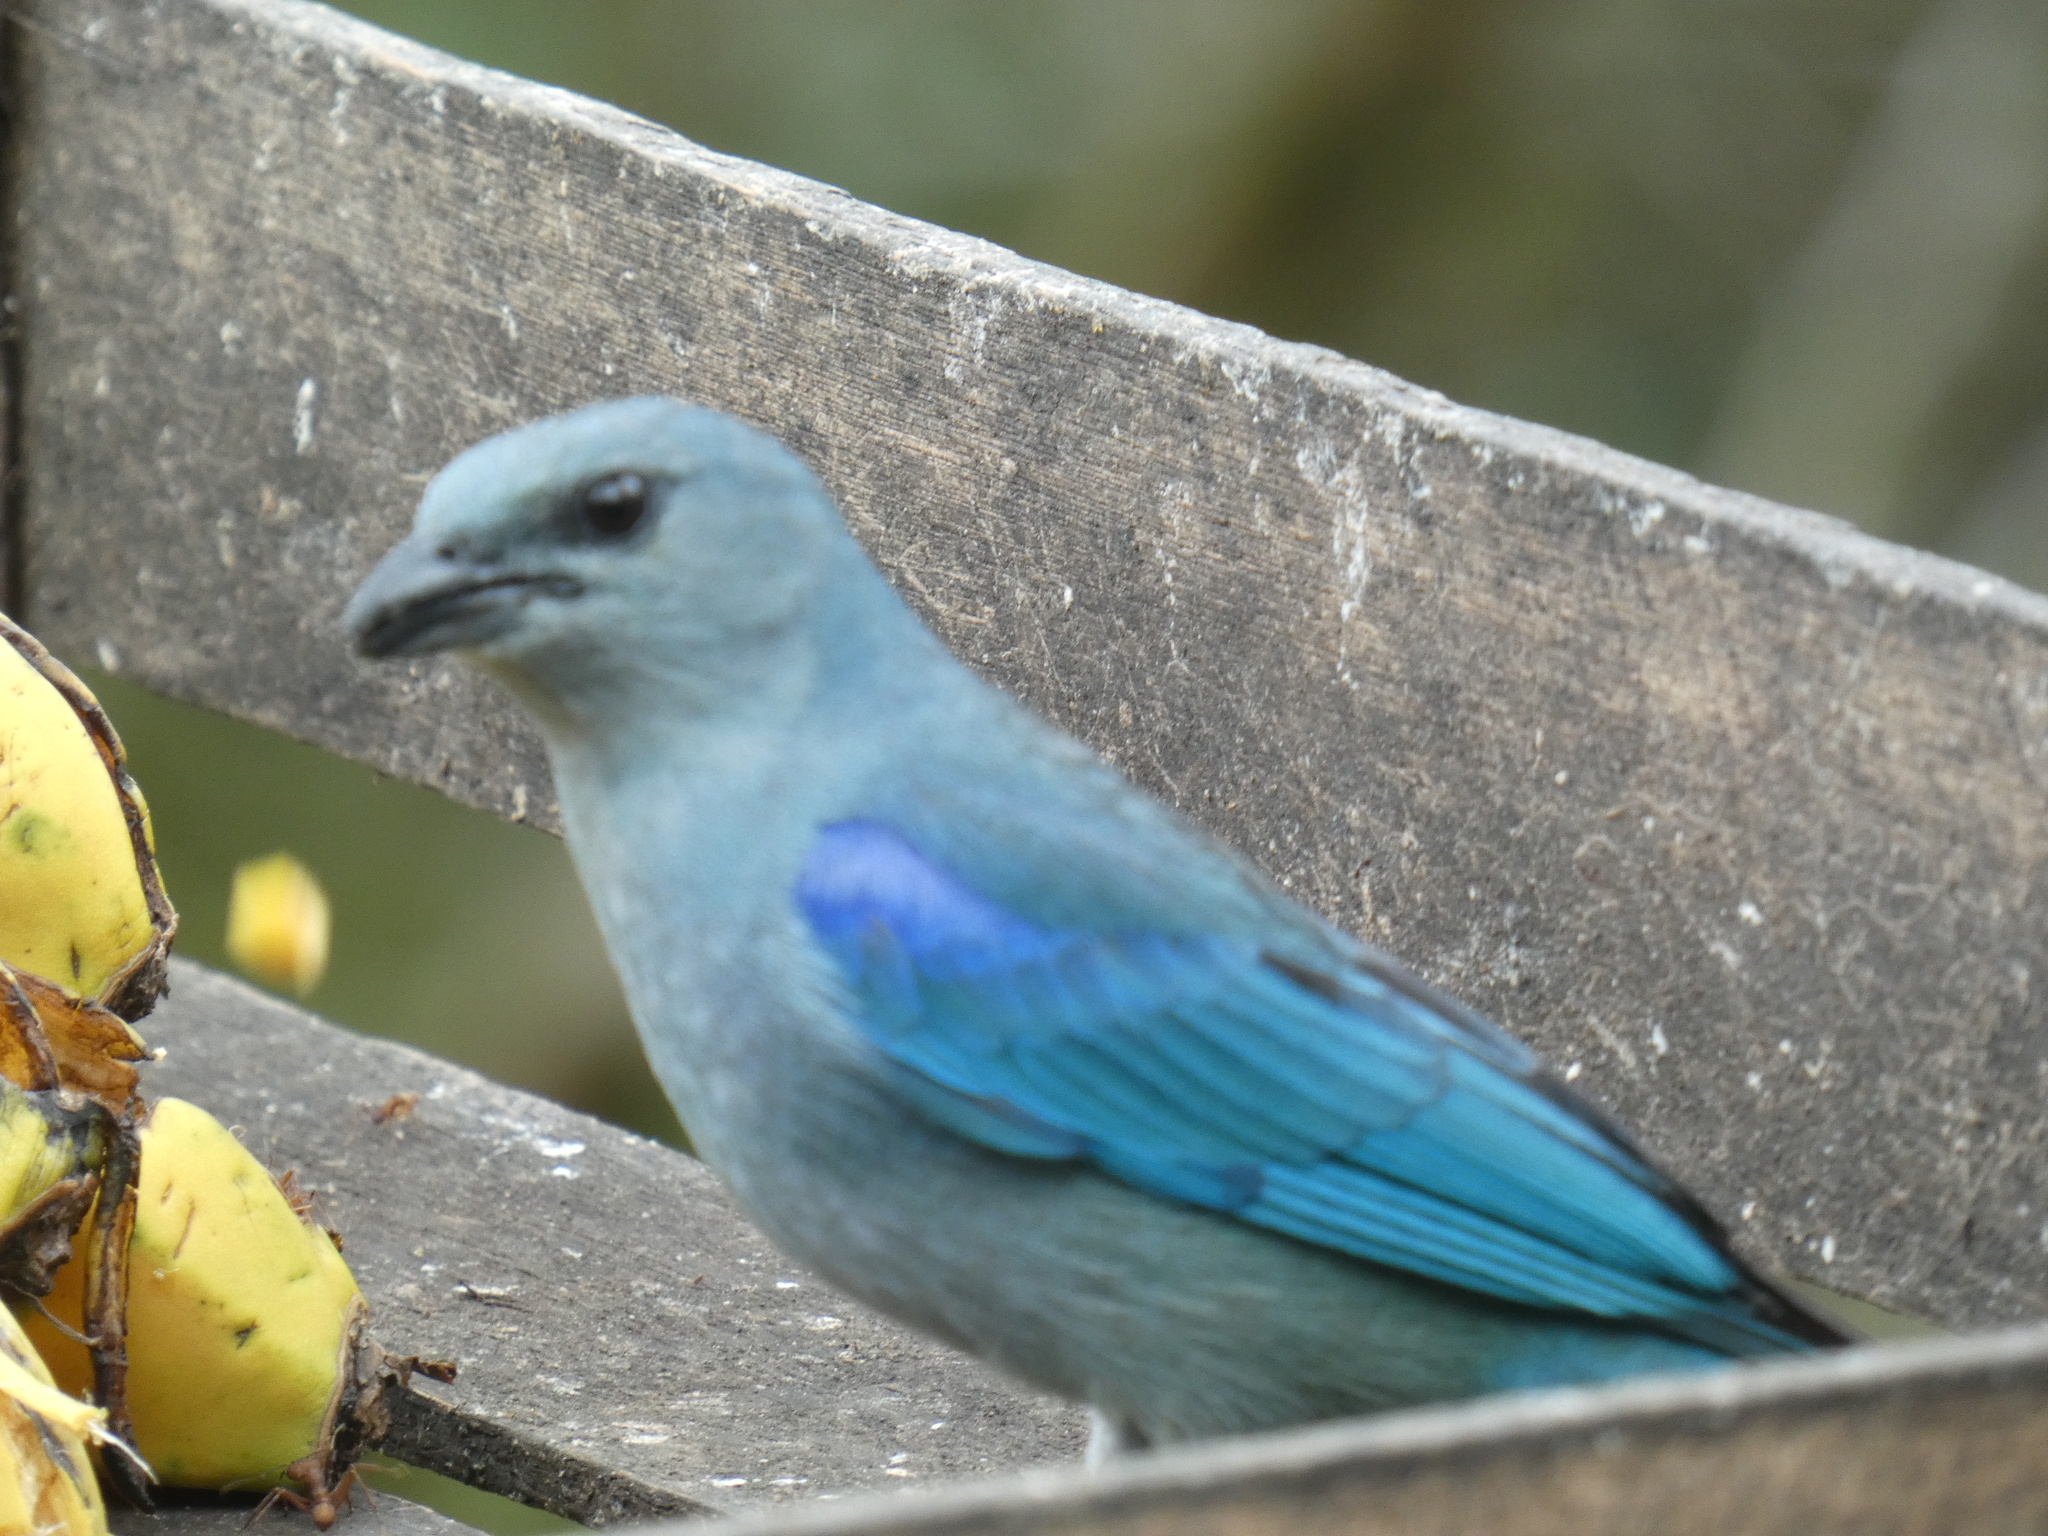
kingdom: Animalia
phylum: Chordata
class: Aves
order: Passeriformes
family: Thraupidae
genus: Thraupis
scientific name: Thraupis cyanoptera
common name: Azure-shouldered tanager
